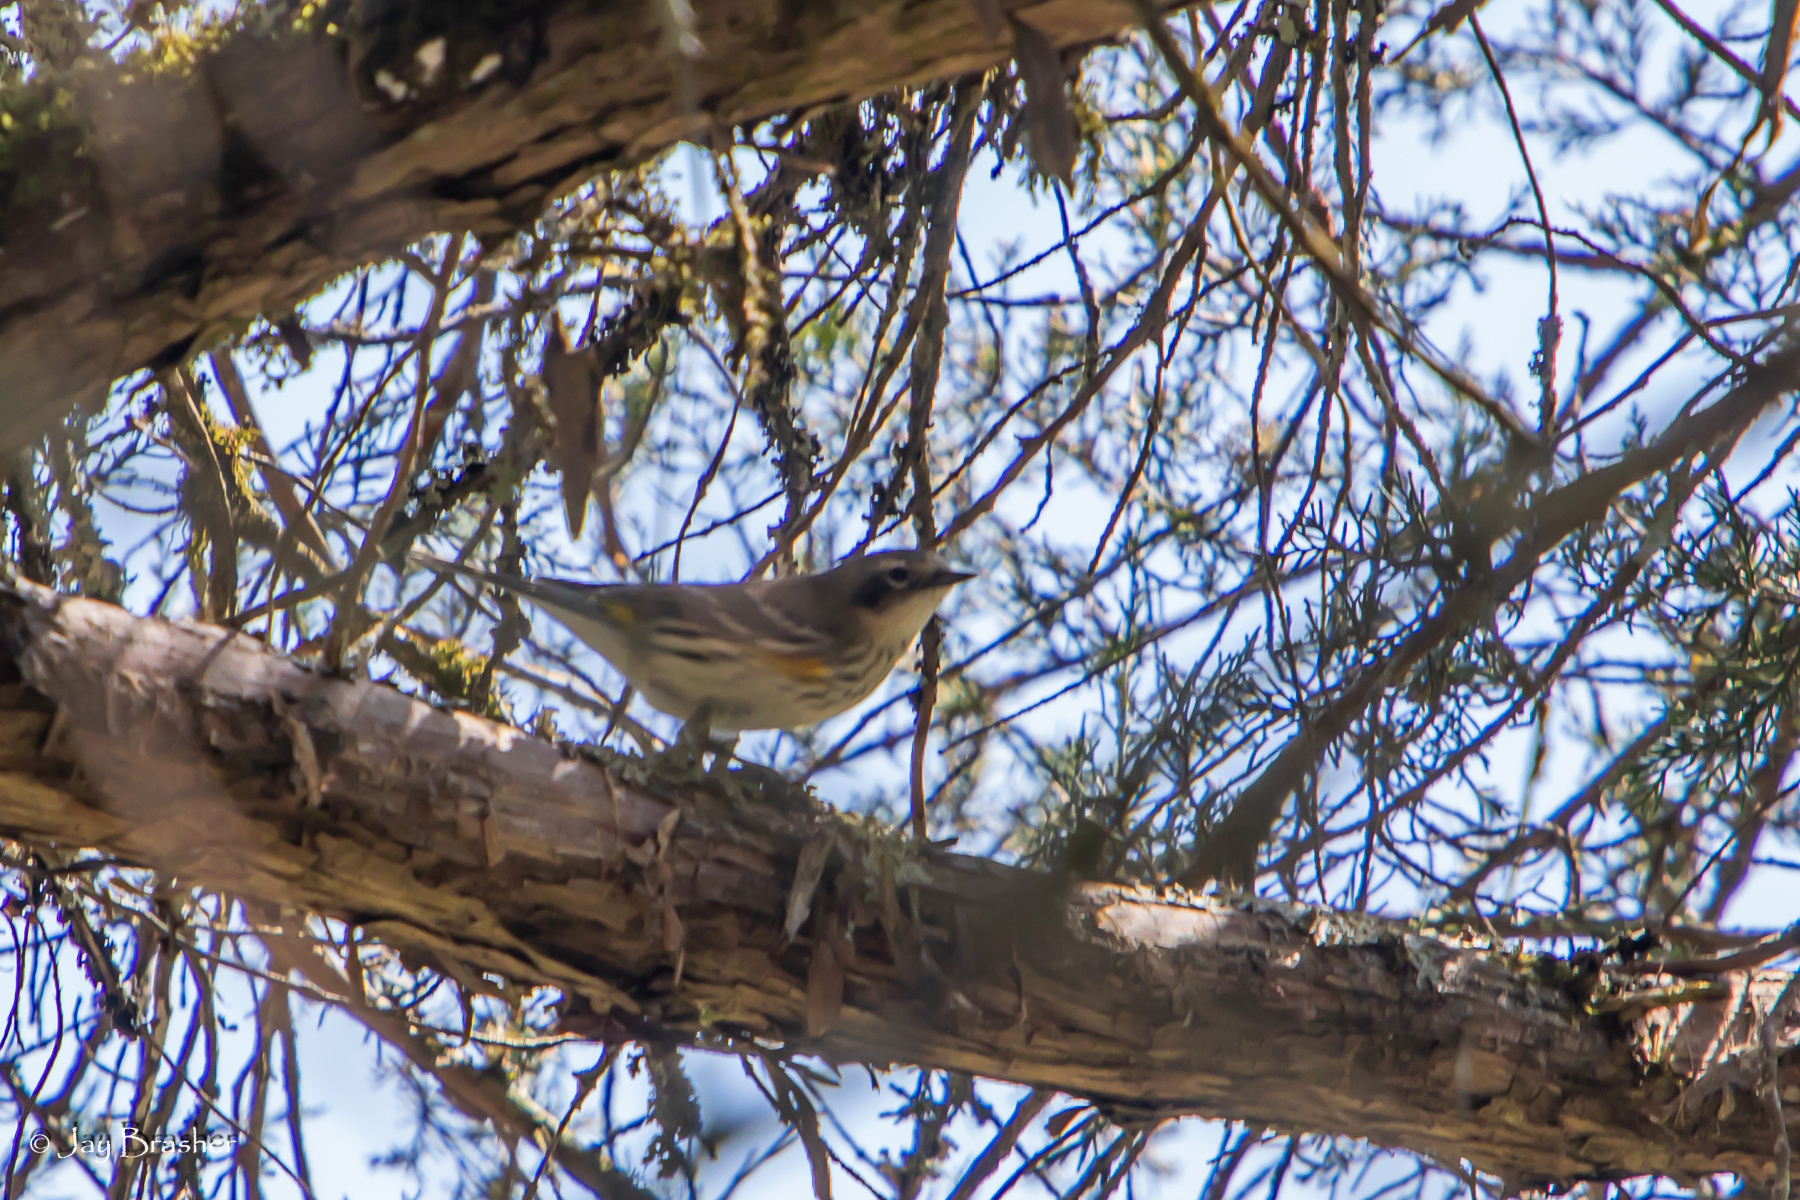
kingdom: Animalia
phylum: Chordata
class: Aves
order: Passeriformes
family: Parulidae
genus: Setophaga
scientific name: Setophaga coronata
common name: Myrtle warbler
